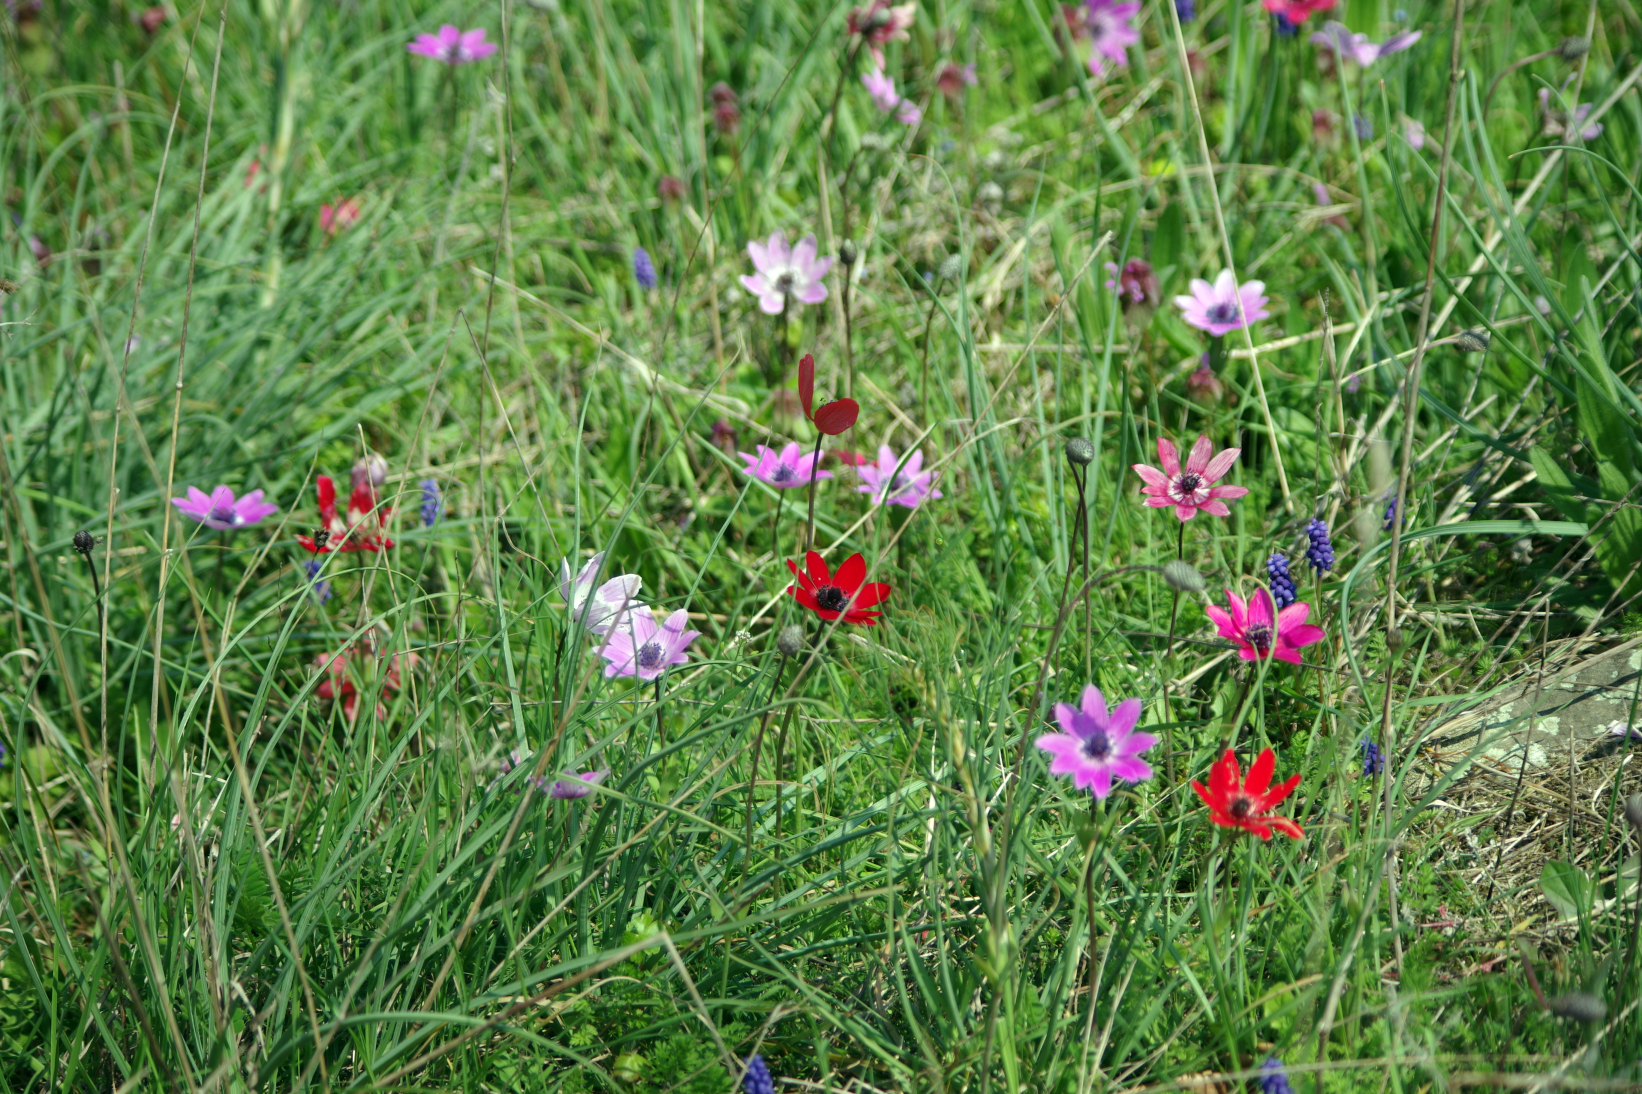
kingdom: Plantae
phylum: Tracheophyta
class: Magnoliopsida
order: Ranunculales
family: Ranunculaceae
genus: Anemone
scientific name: Anemone pavonina
